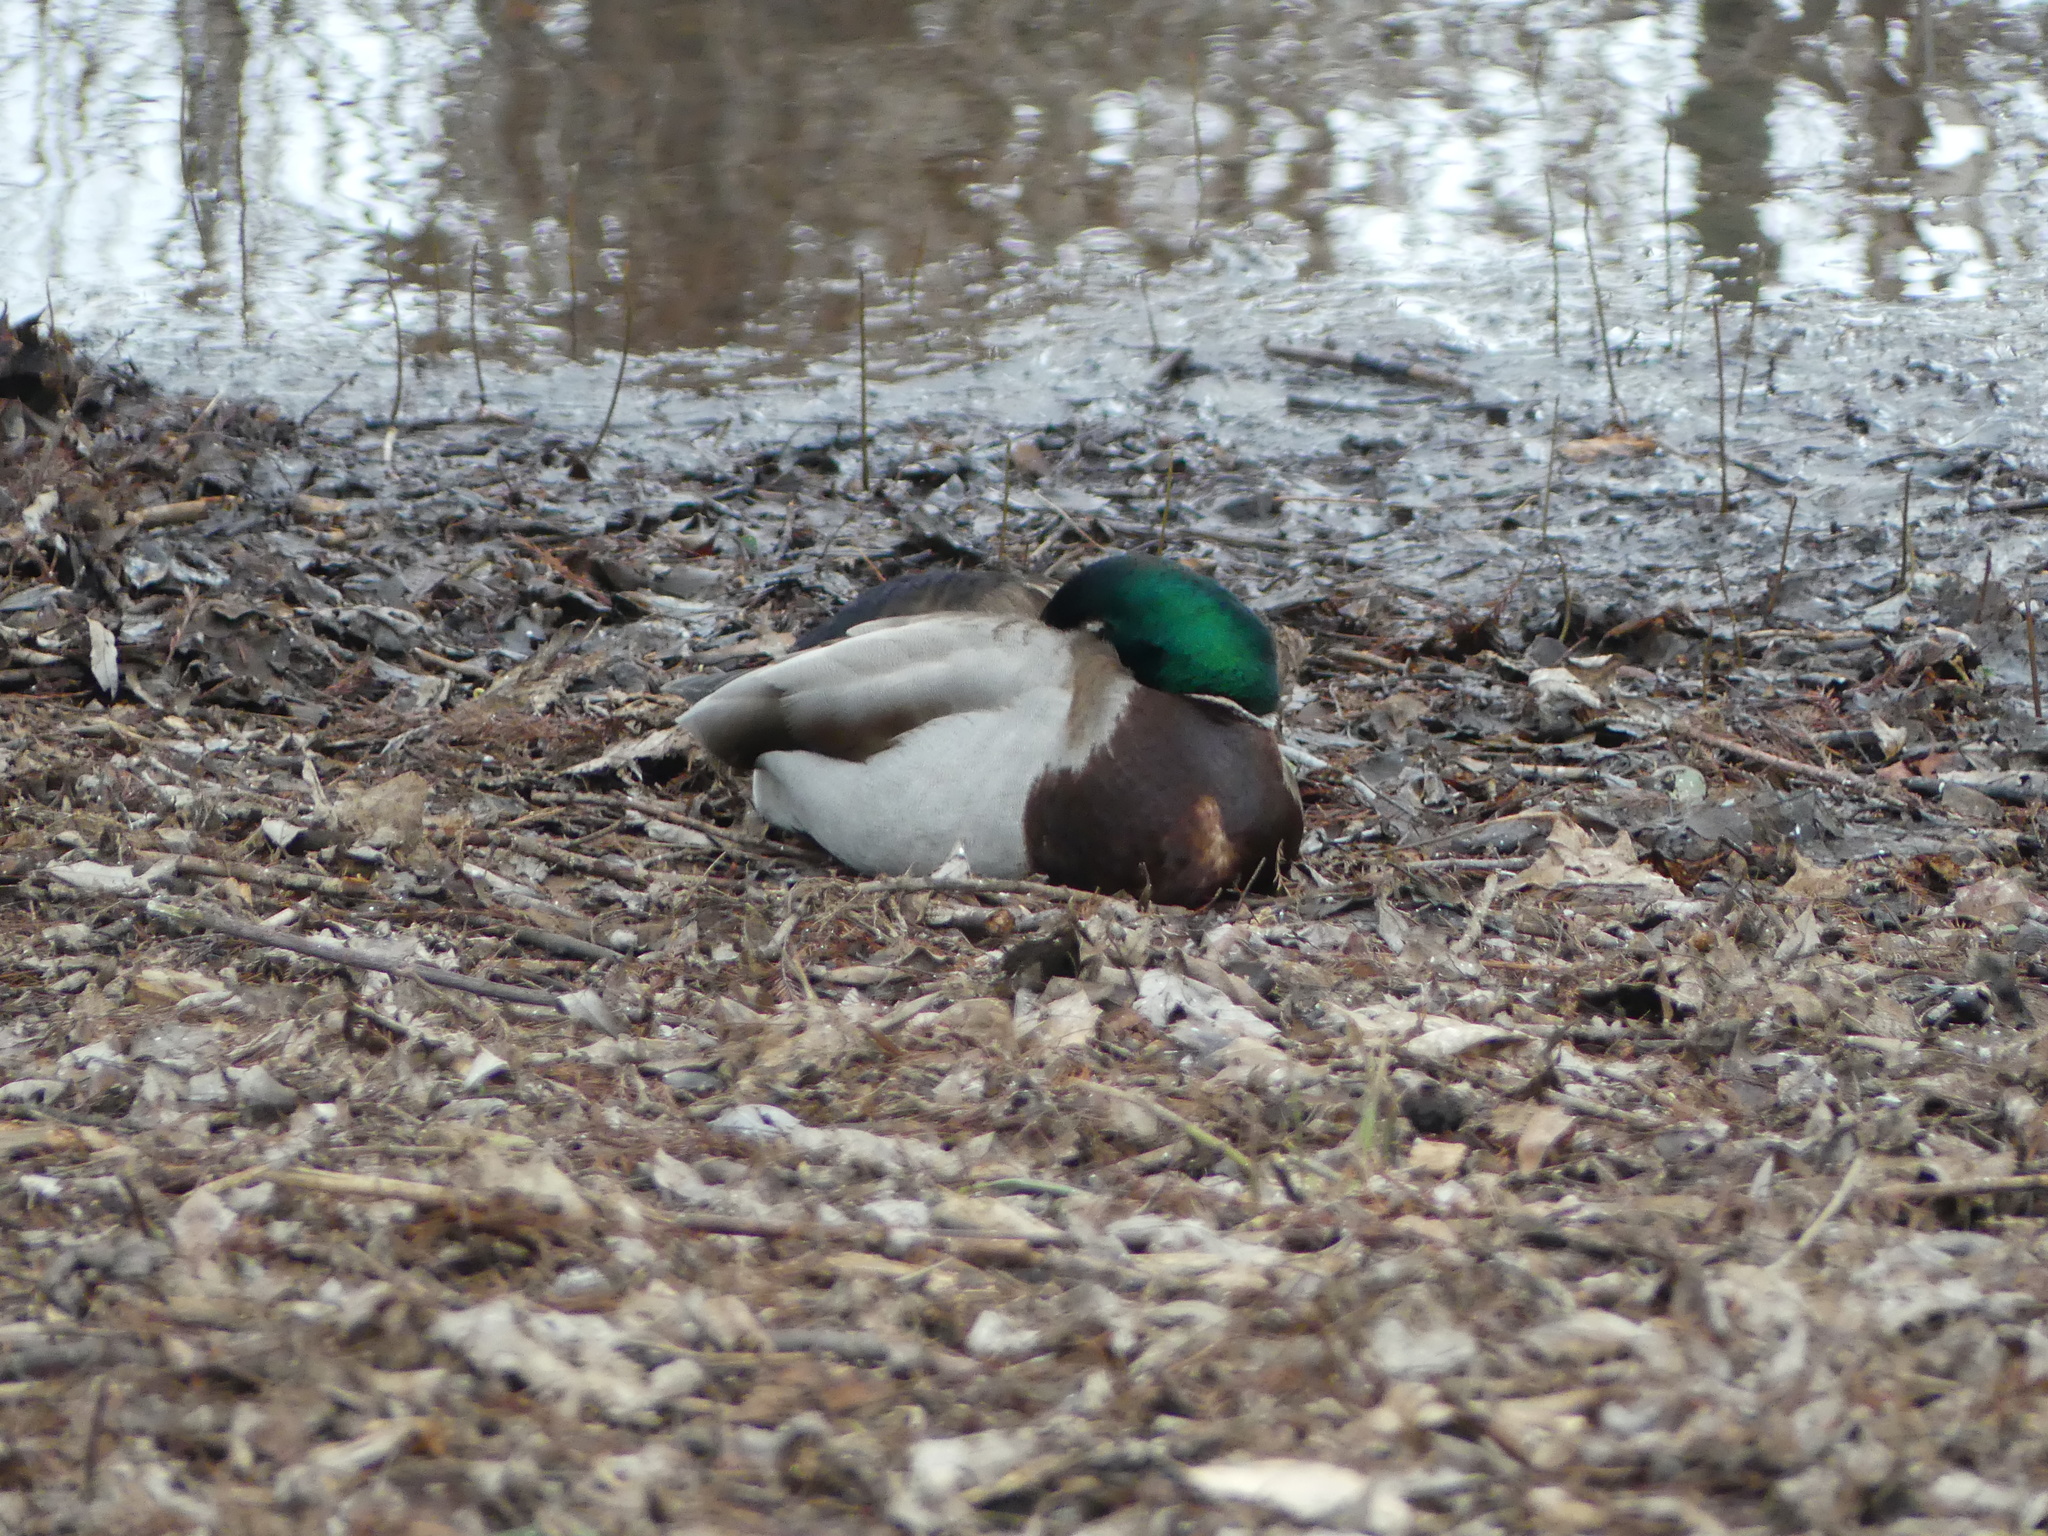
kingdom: Animalia
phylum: Chordata
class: Aves
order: Anseriformes
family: Anatidae
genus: Anas
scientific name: Anas platyrhynchos
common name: Mallard
